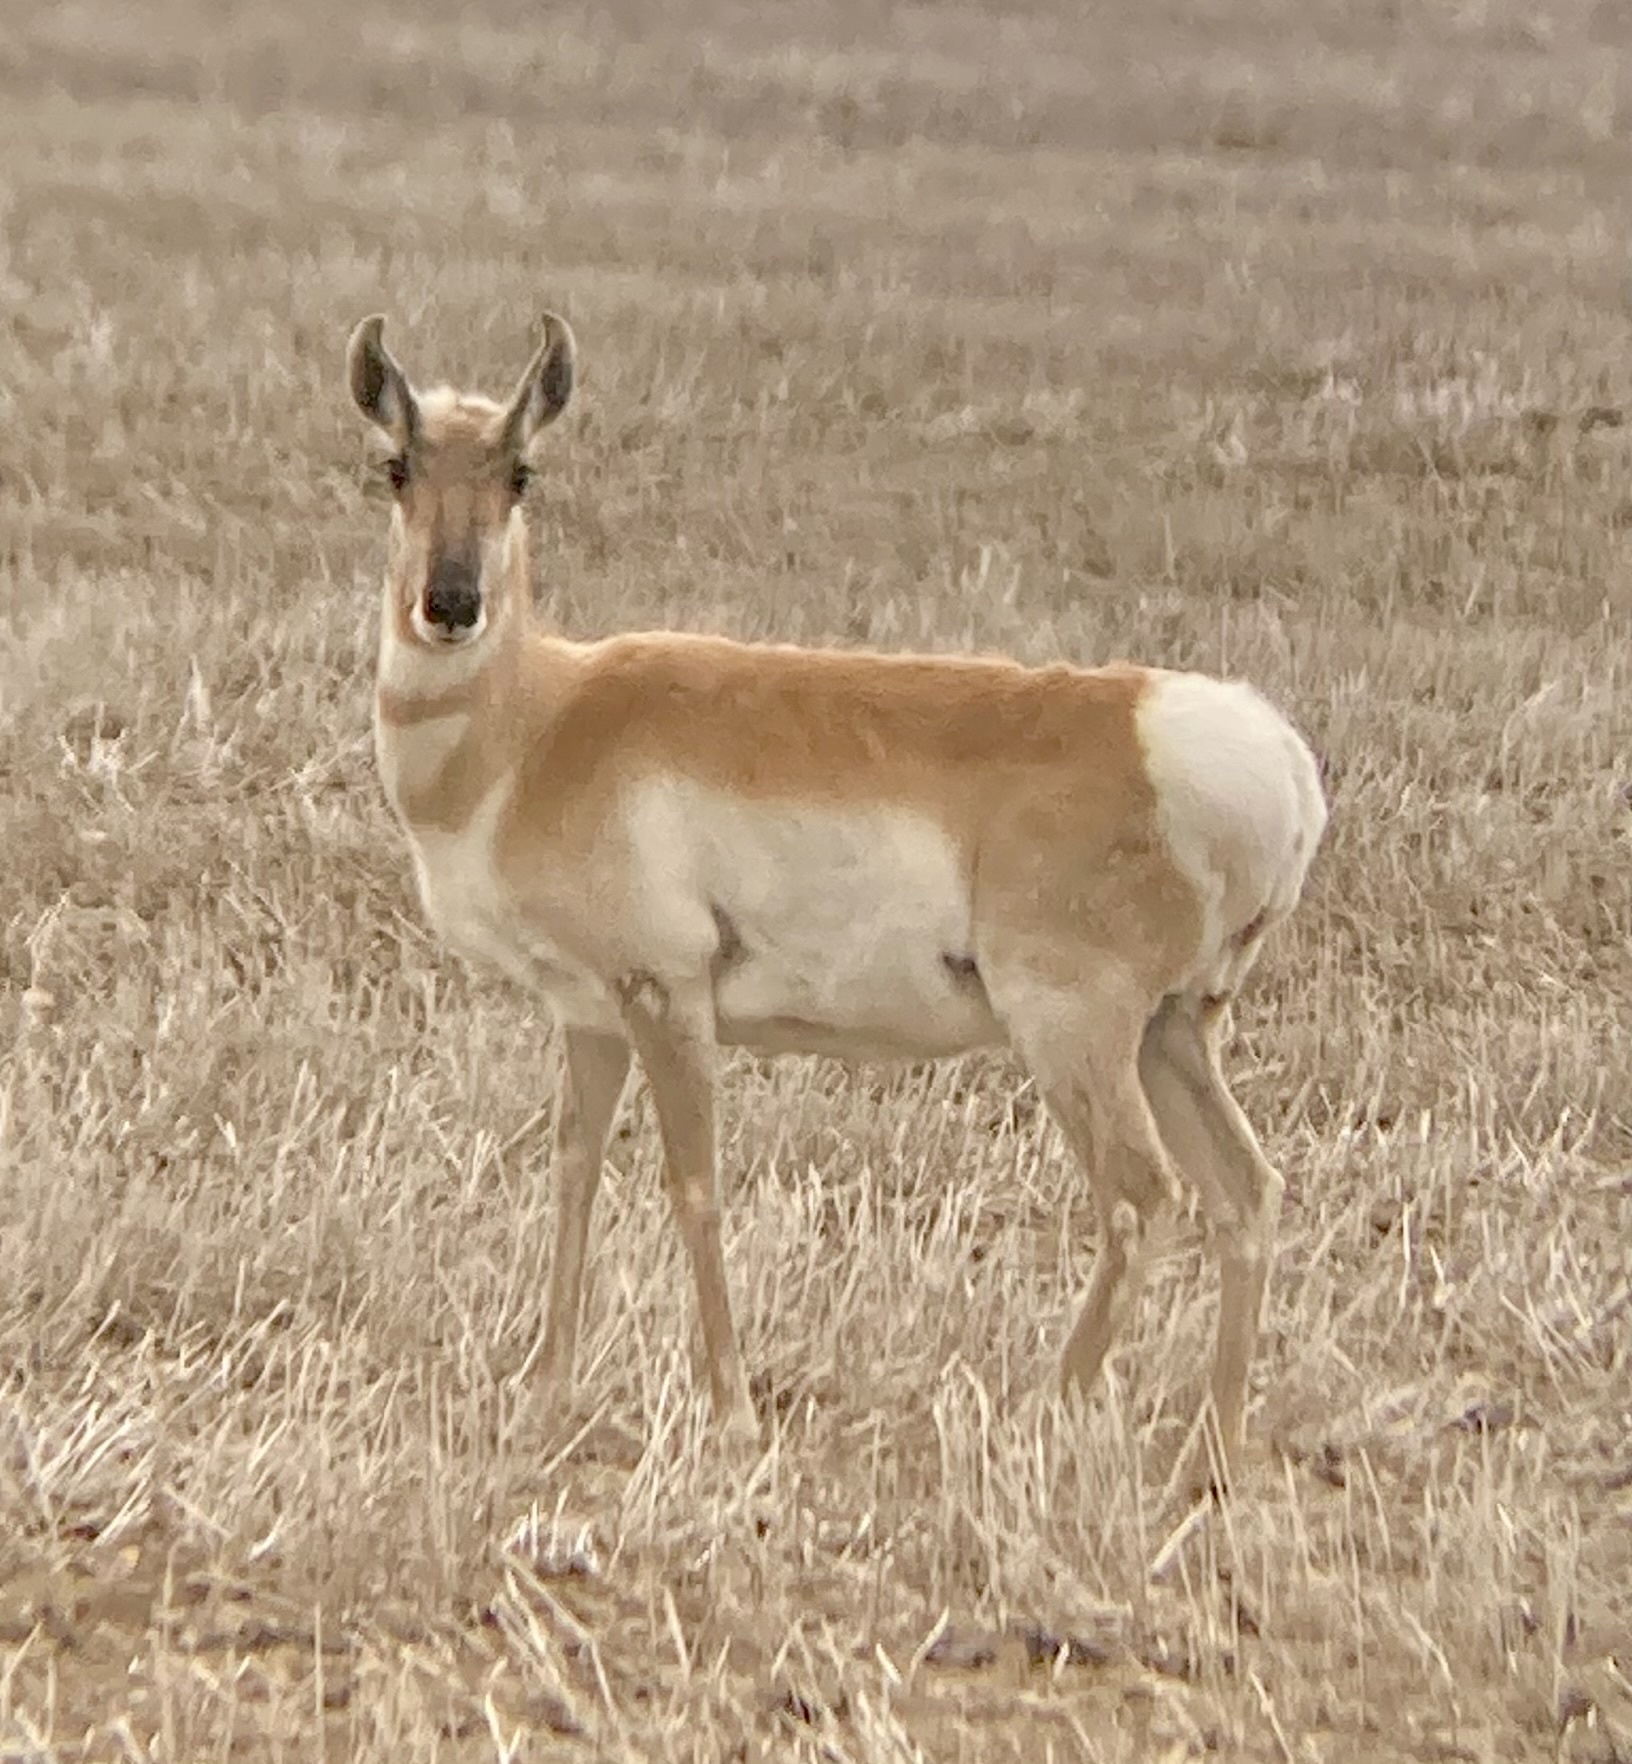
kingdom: Animalia
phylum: Chordata
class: Mammalia
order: Artiodactyla
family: Antilocapridae
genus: Antilocapra
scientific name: Antilocapra americana
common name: Pronghorn
